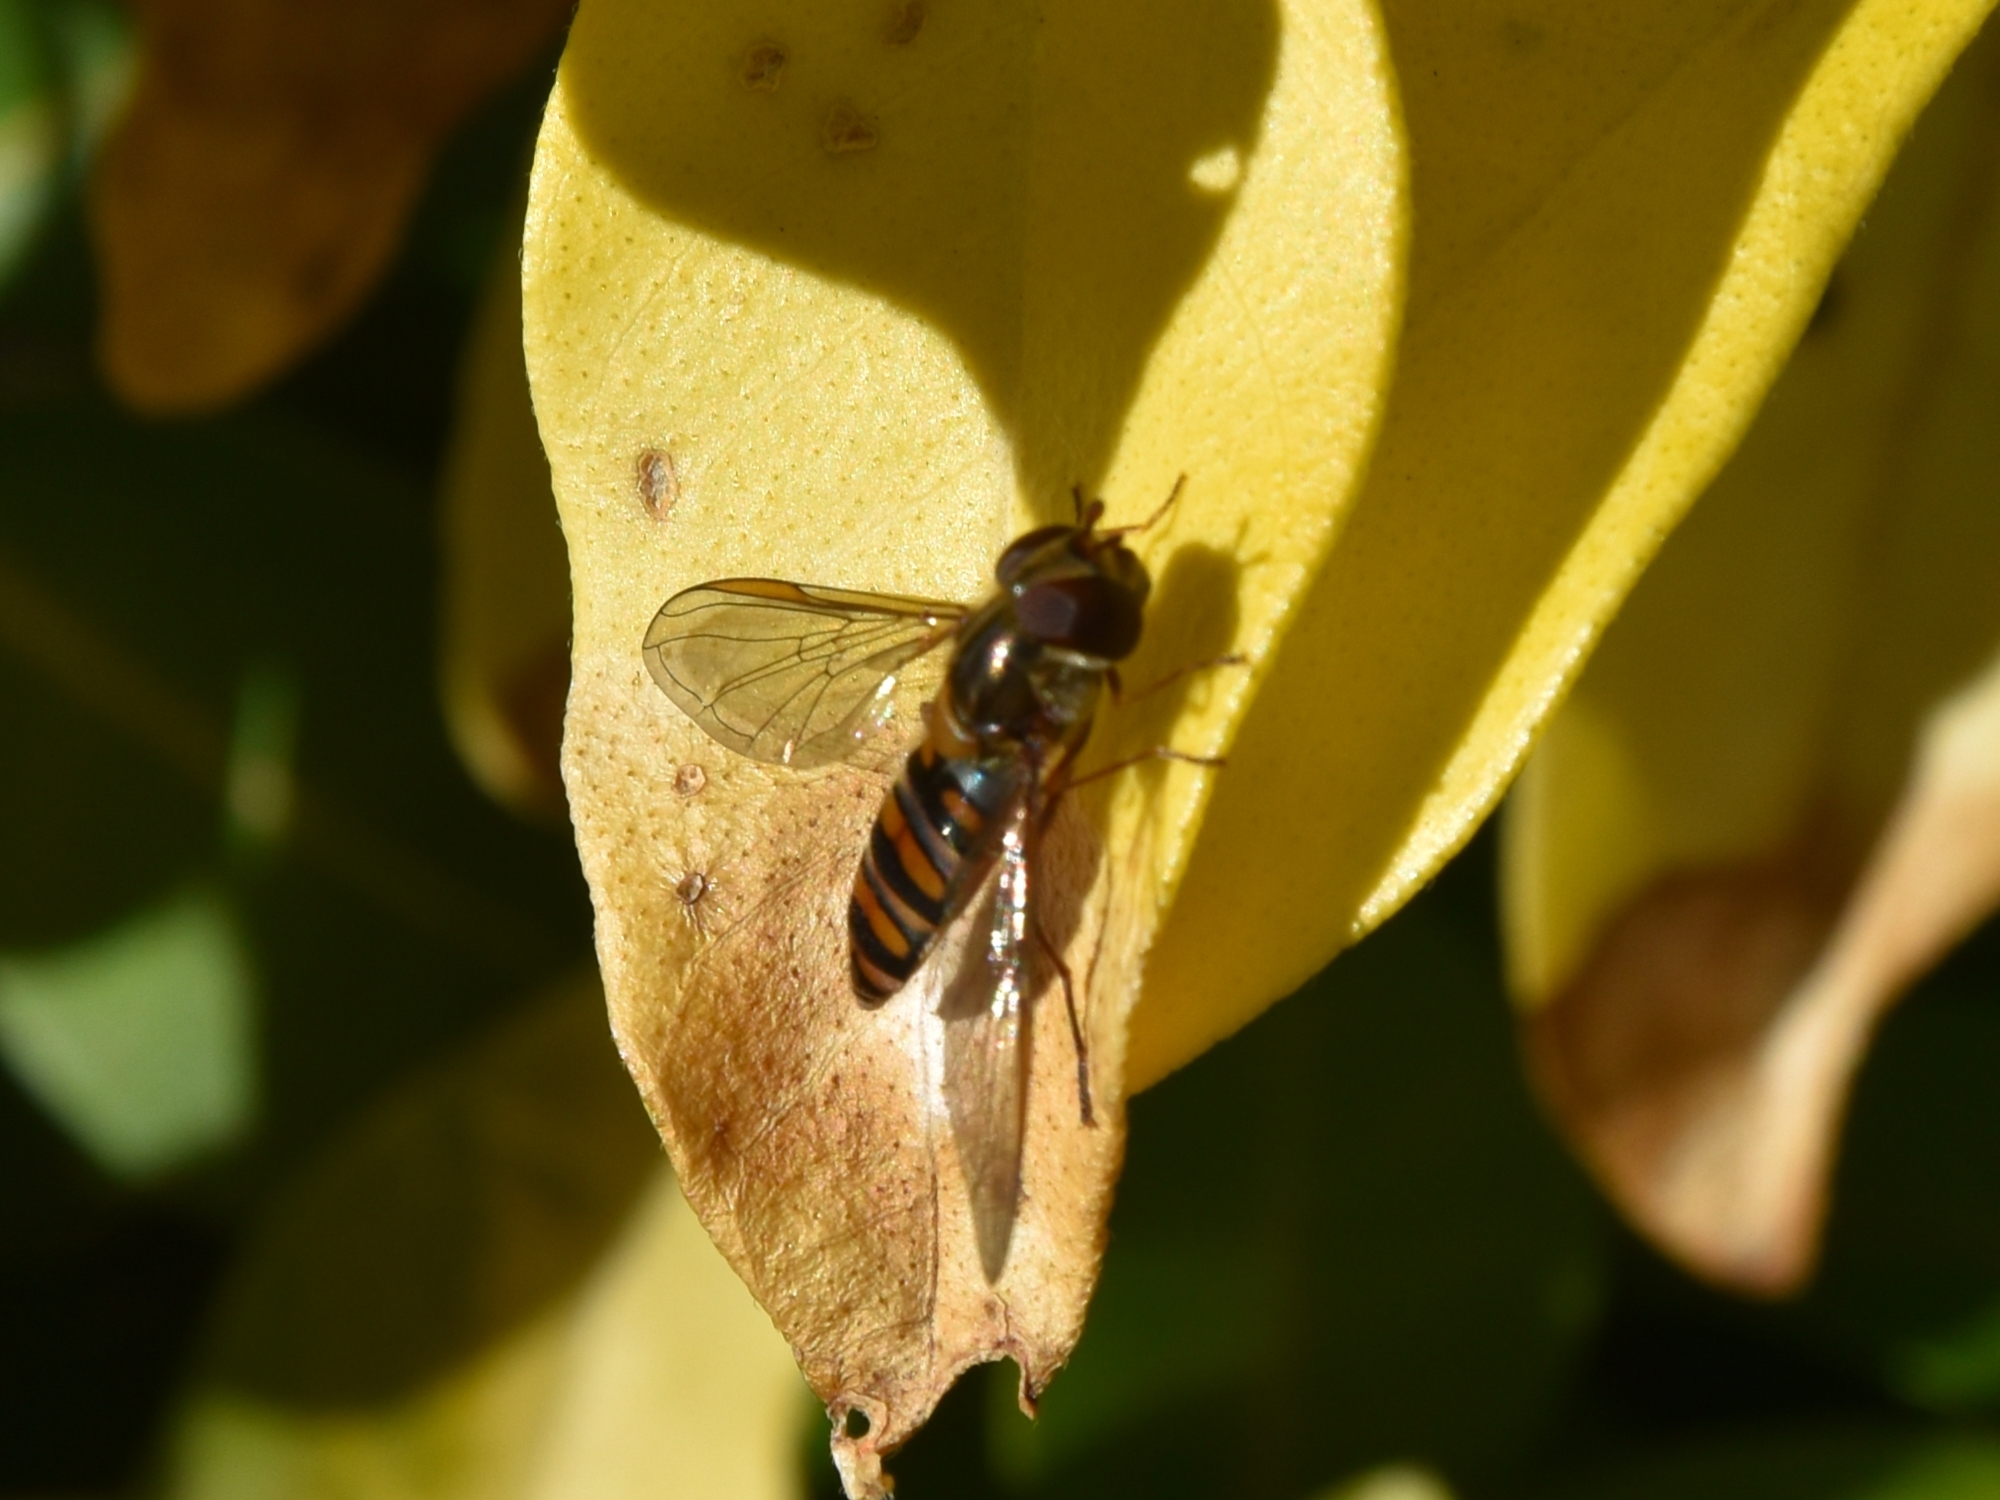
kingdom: Animalia
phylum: Arthropoda
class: Insecta
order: Diptera
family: Syrphidae
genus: Episyrphus
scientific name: Episyrphus balteatus
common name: Marmalade hoverfly
